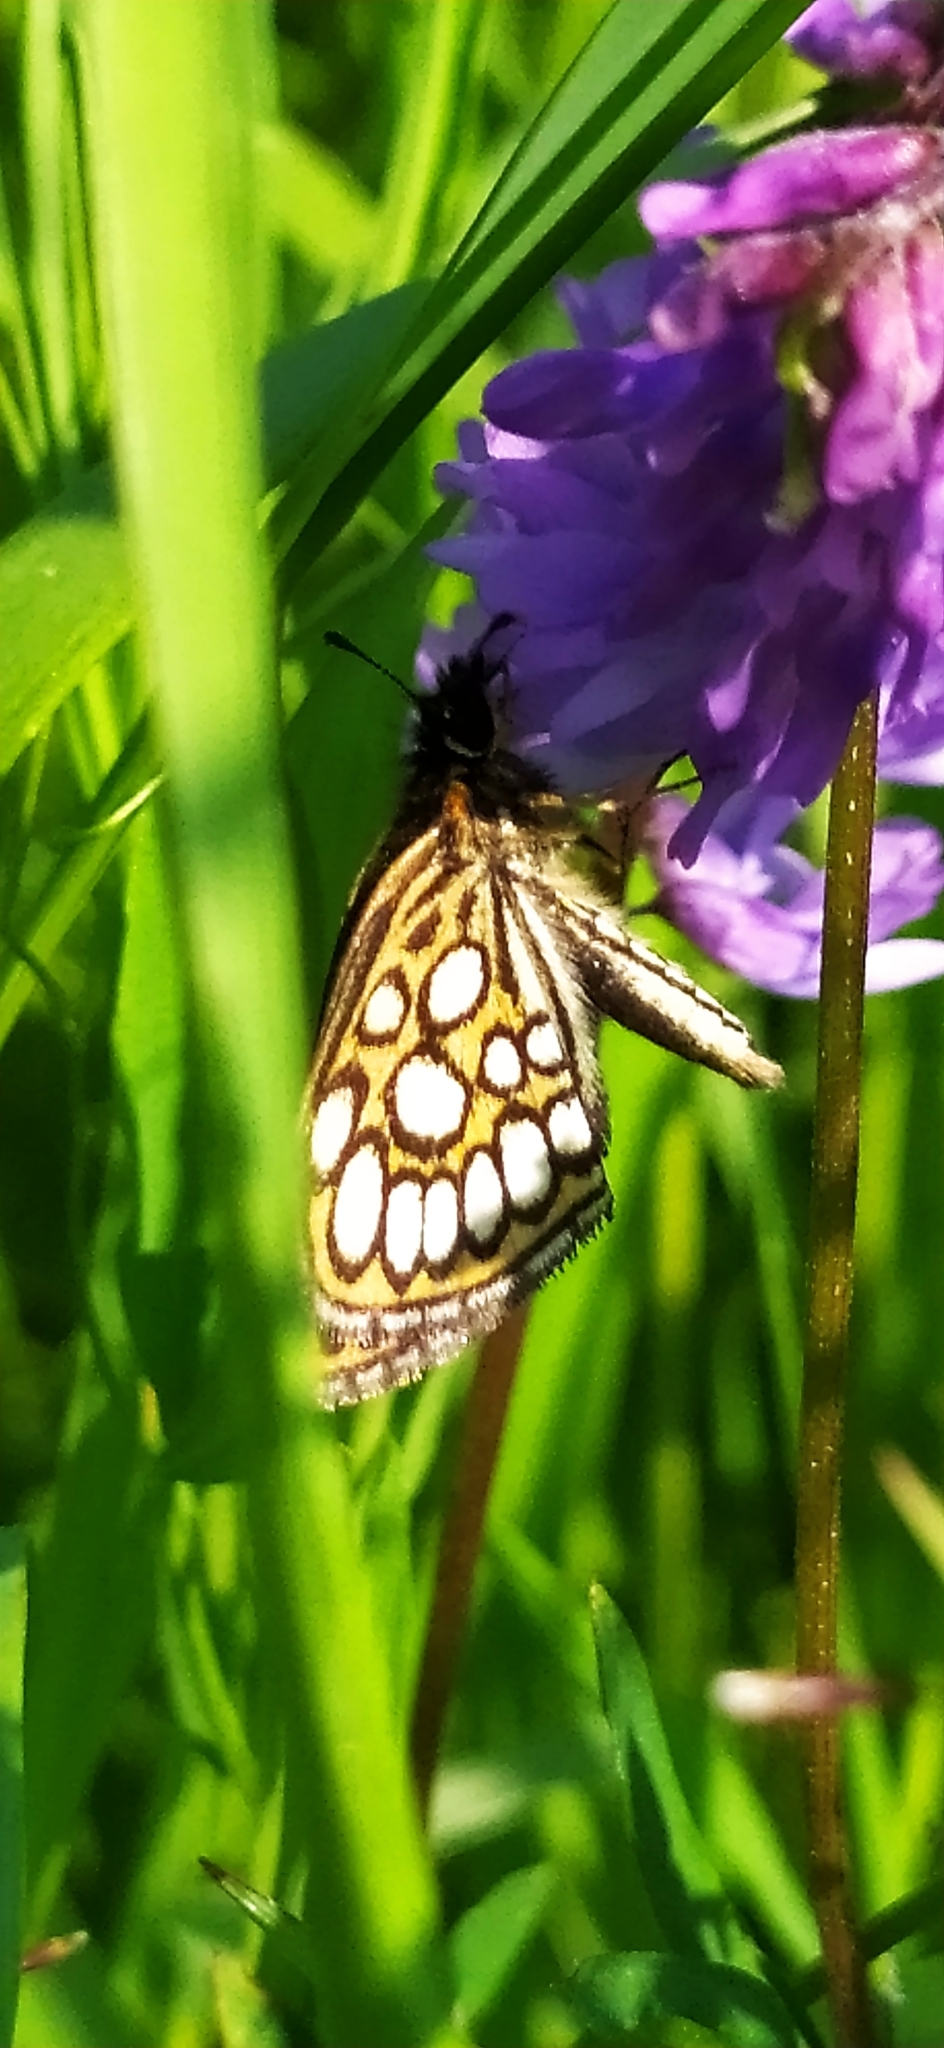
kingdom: Animalia
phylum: Arthropoda
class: Insecta
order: Lepidoptera
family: Hesperiidae
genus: Heteropterus
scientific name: Heteropterus morpheus
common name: Large chequered skipper
